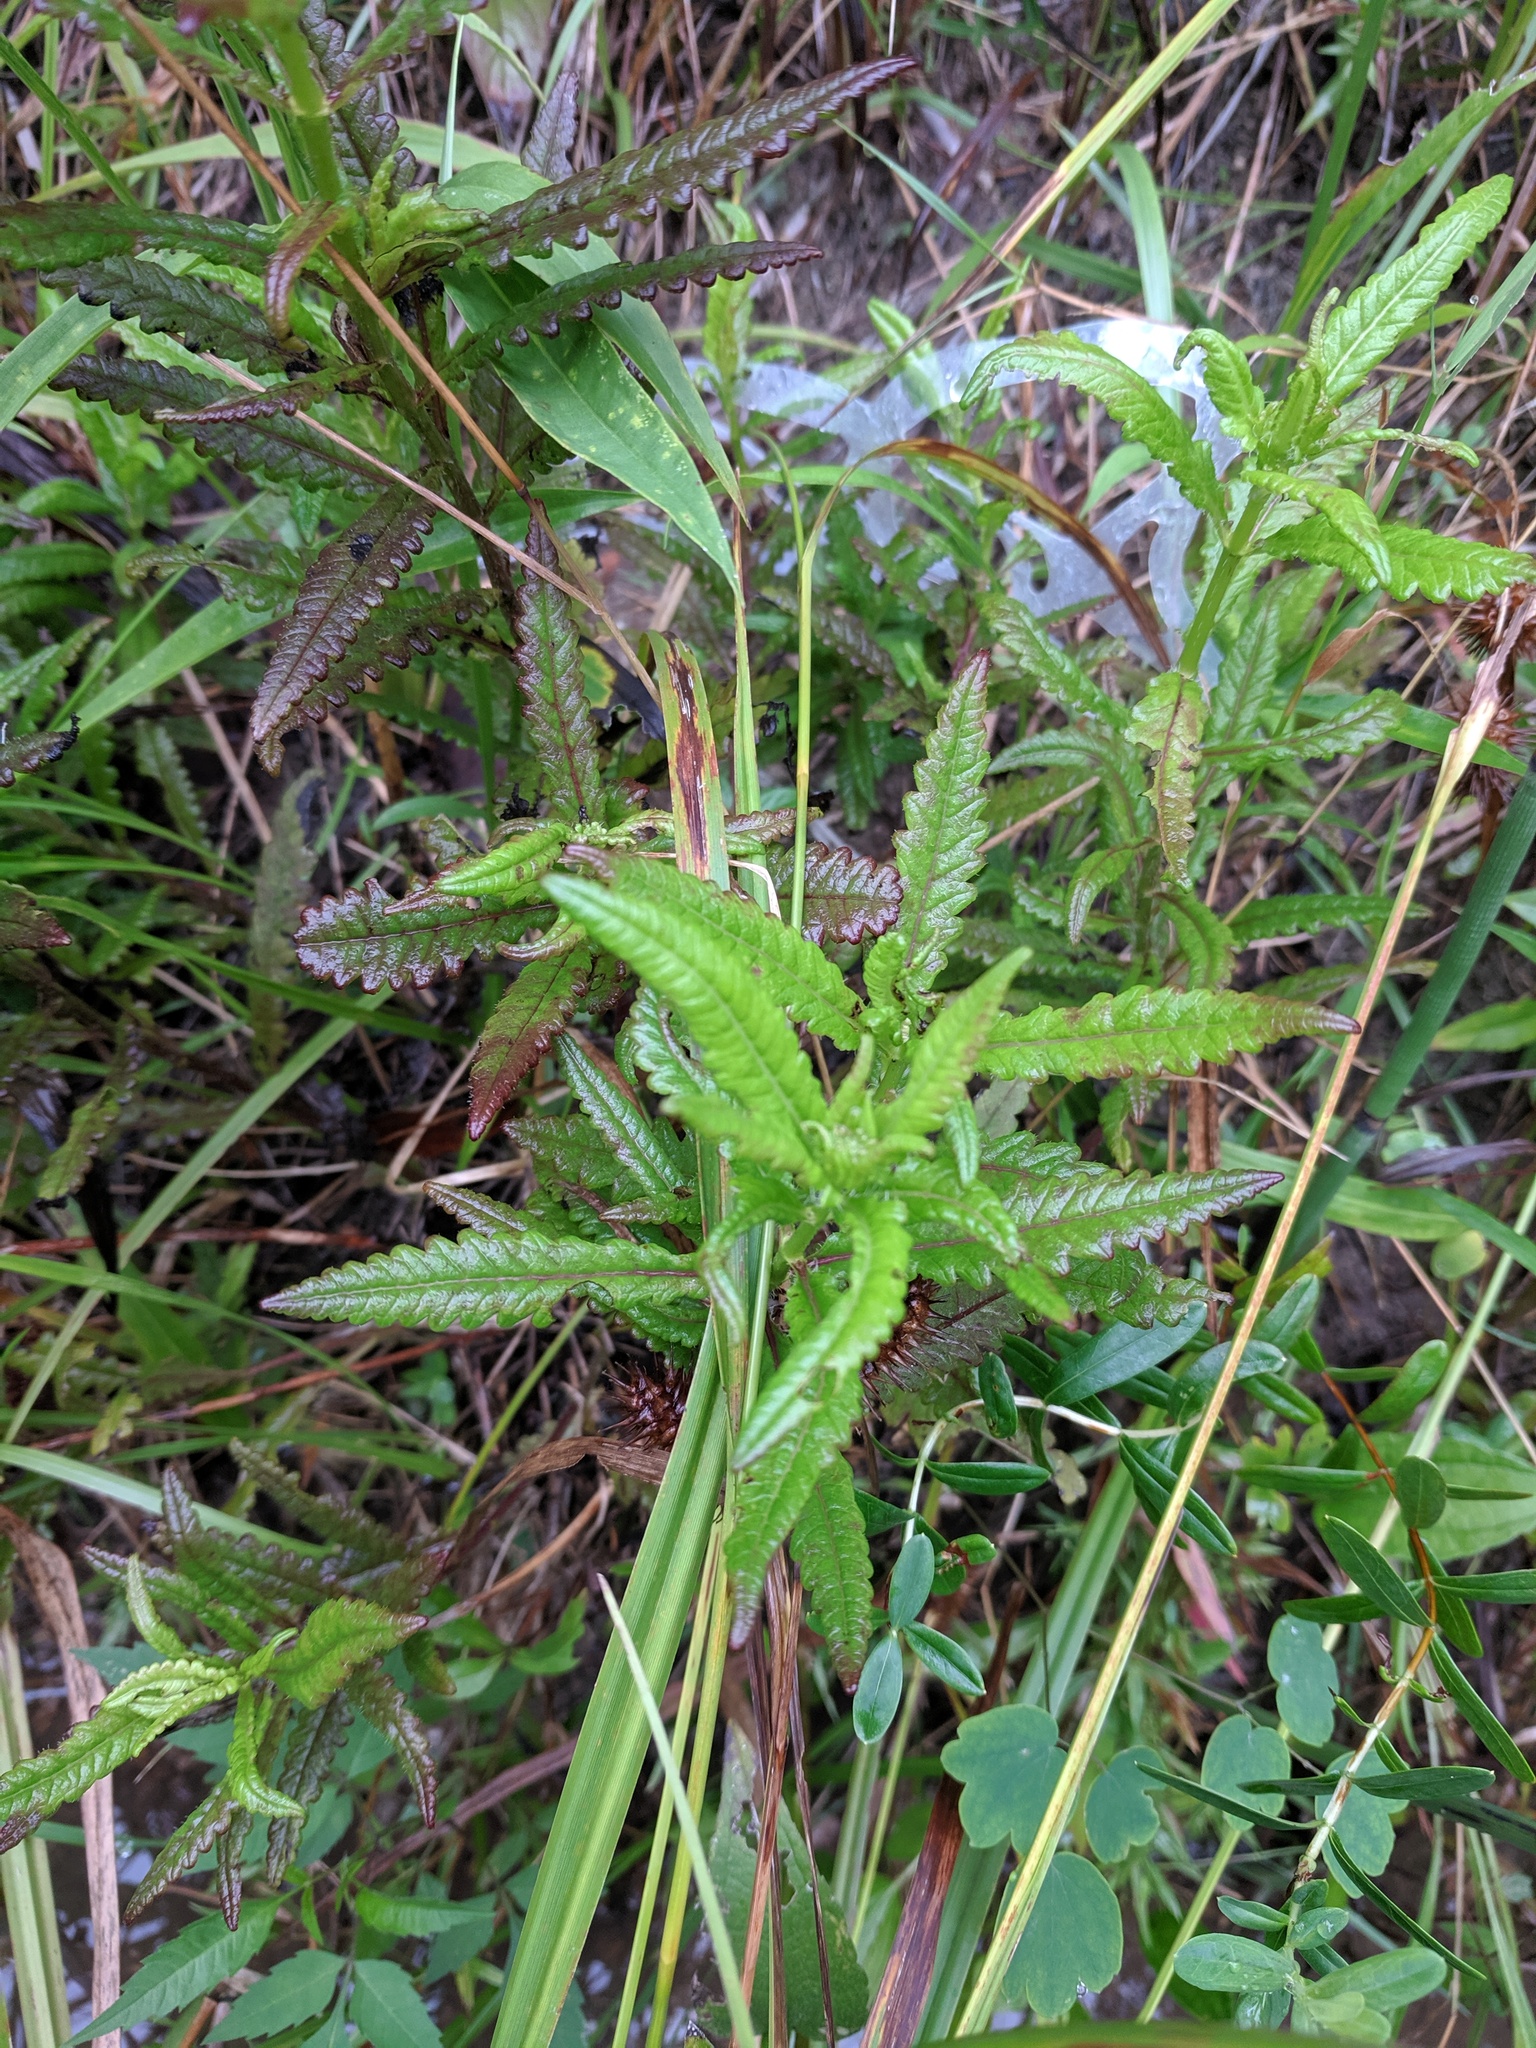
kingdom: Plantae
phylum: Tracheophyta
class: Magnoliopsida
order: Lamiales
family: Orobanchaceae
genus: Pedicularis
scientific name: Pedicularis lanceolata
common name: Swamp lousewort
